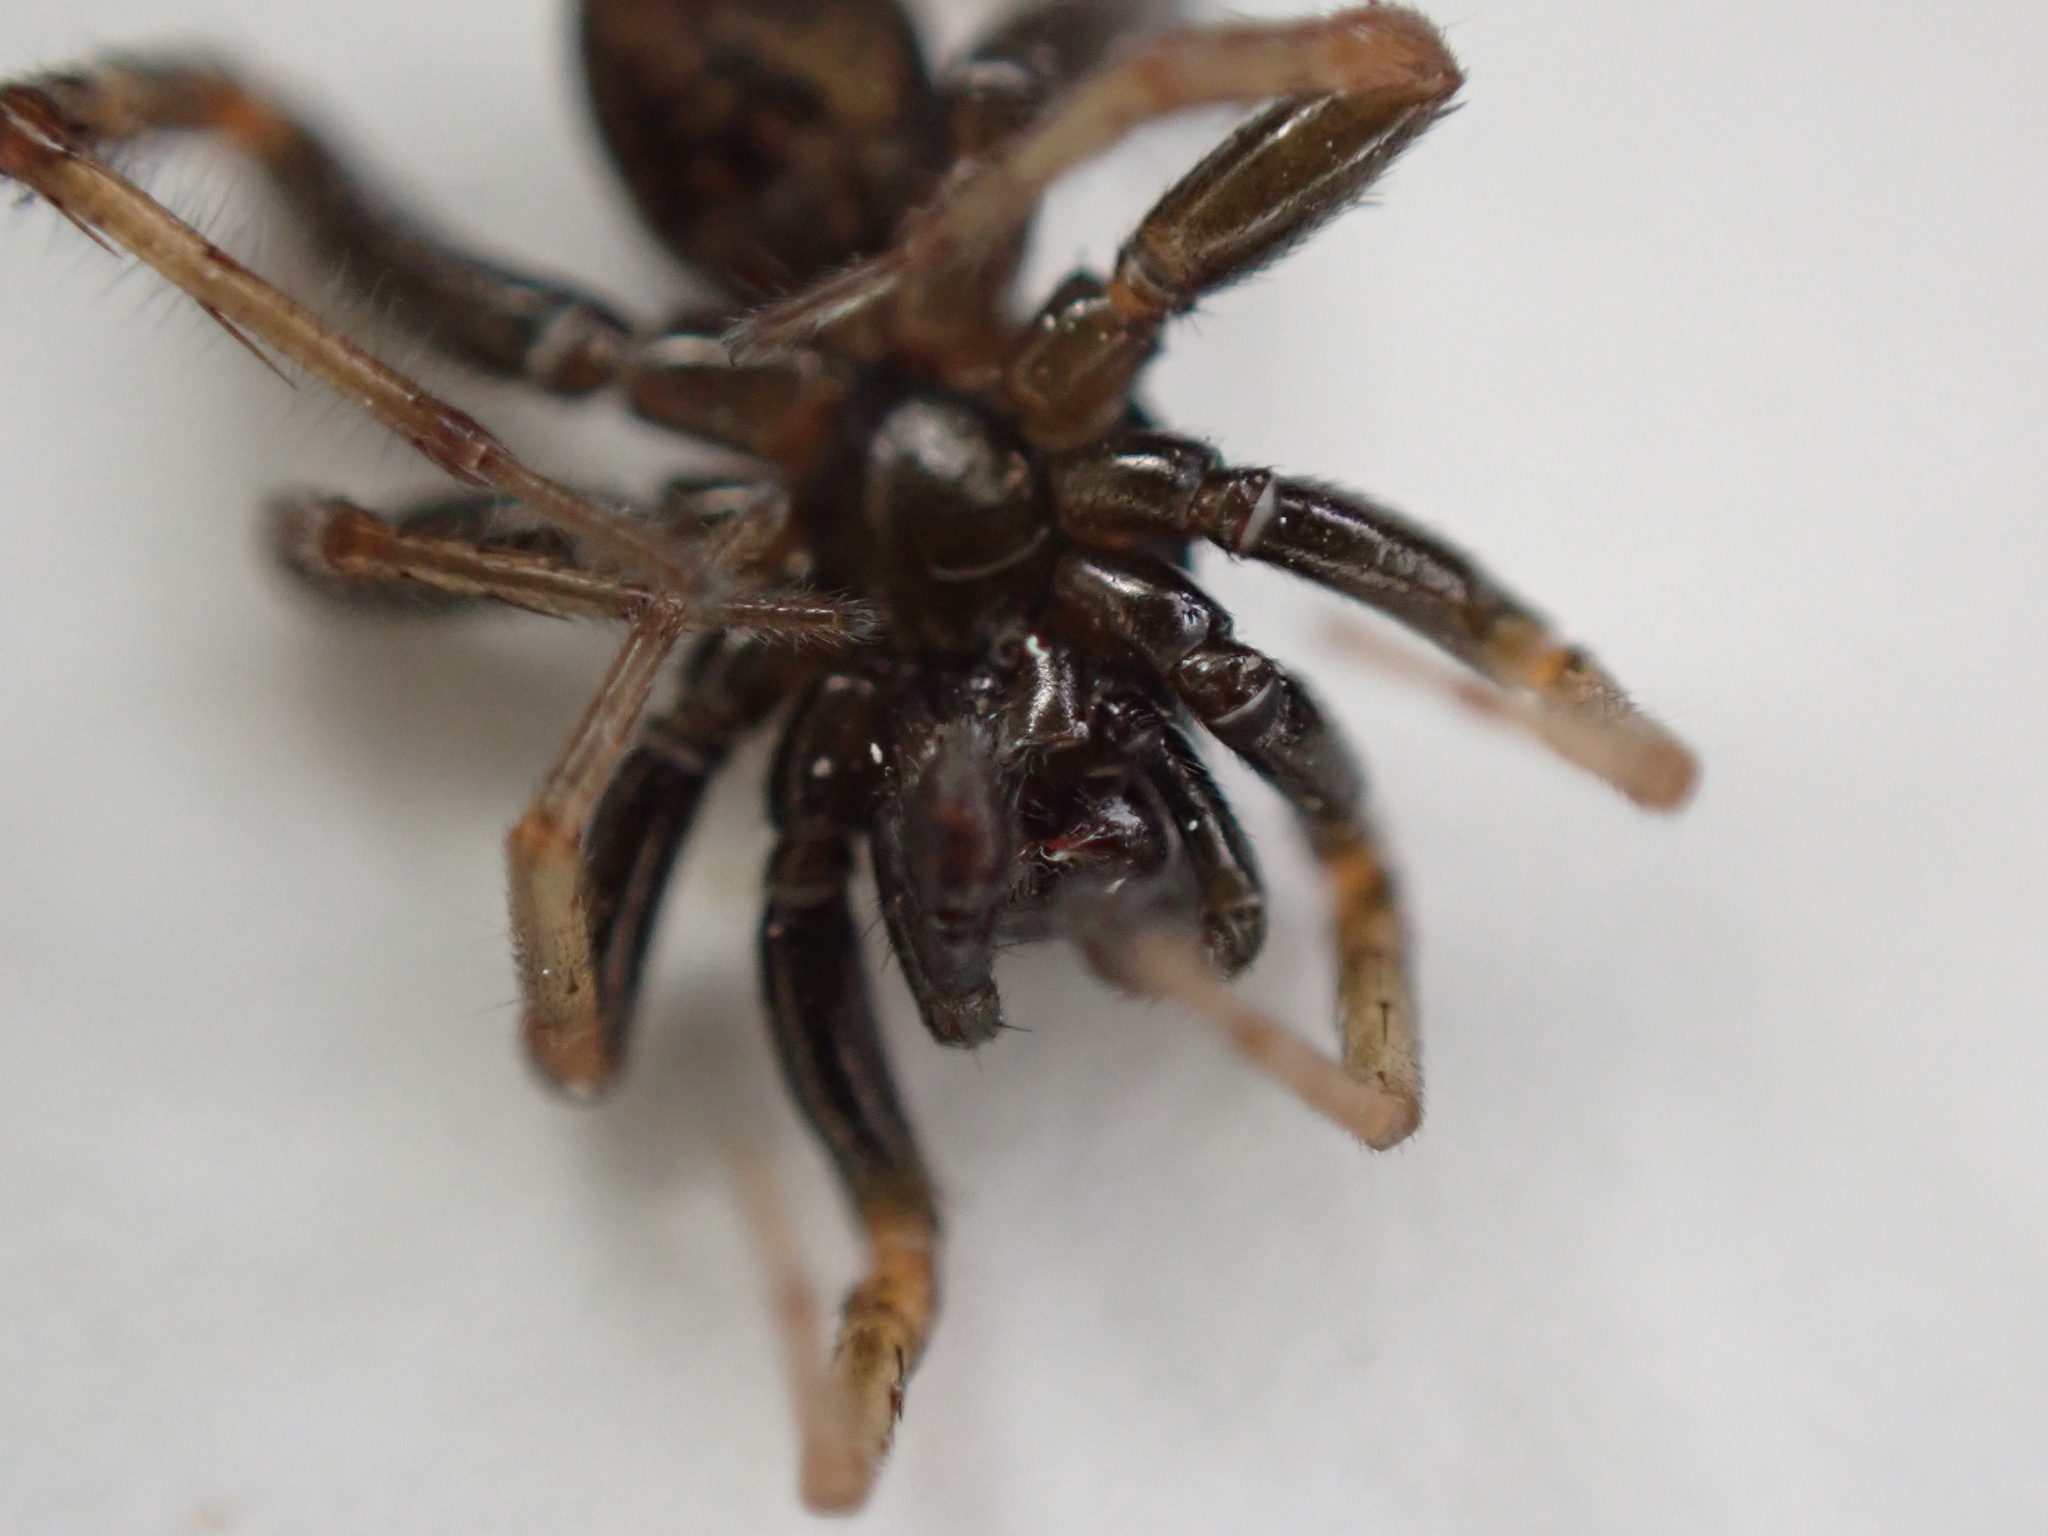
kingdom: Animalia
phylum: Arthropoda
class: Arachnida
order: Araneae
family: Lycosidae
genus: Allocosa
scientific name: Allocosa funerea
